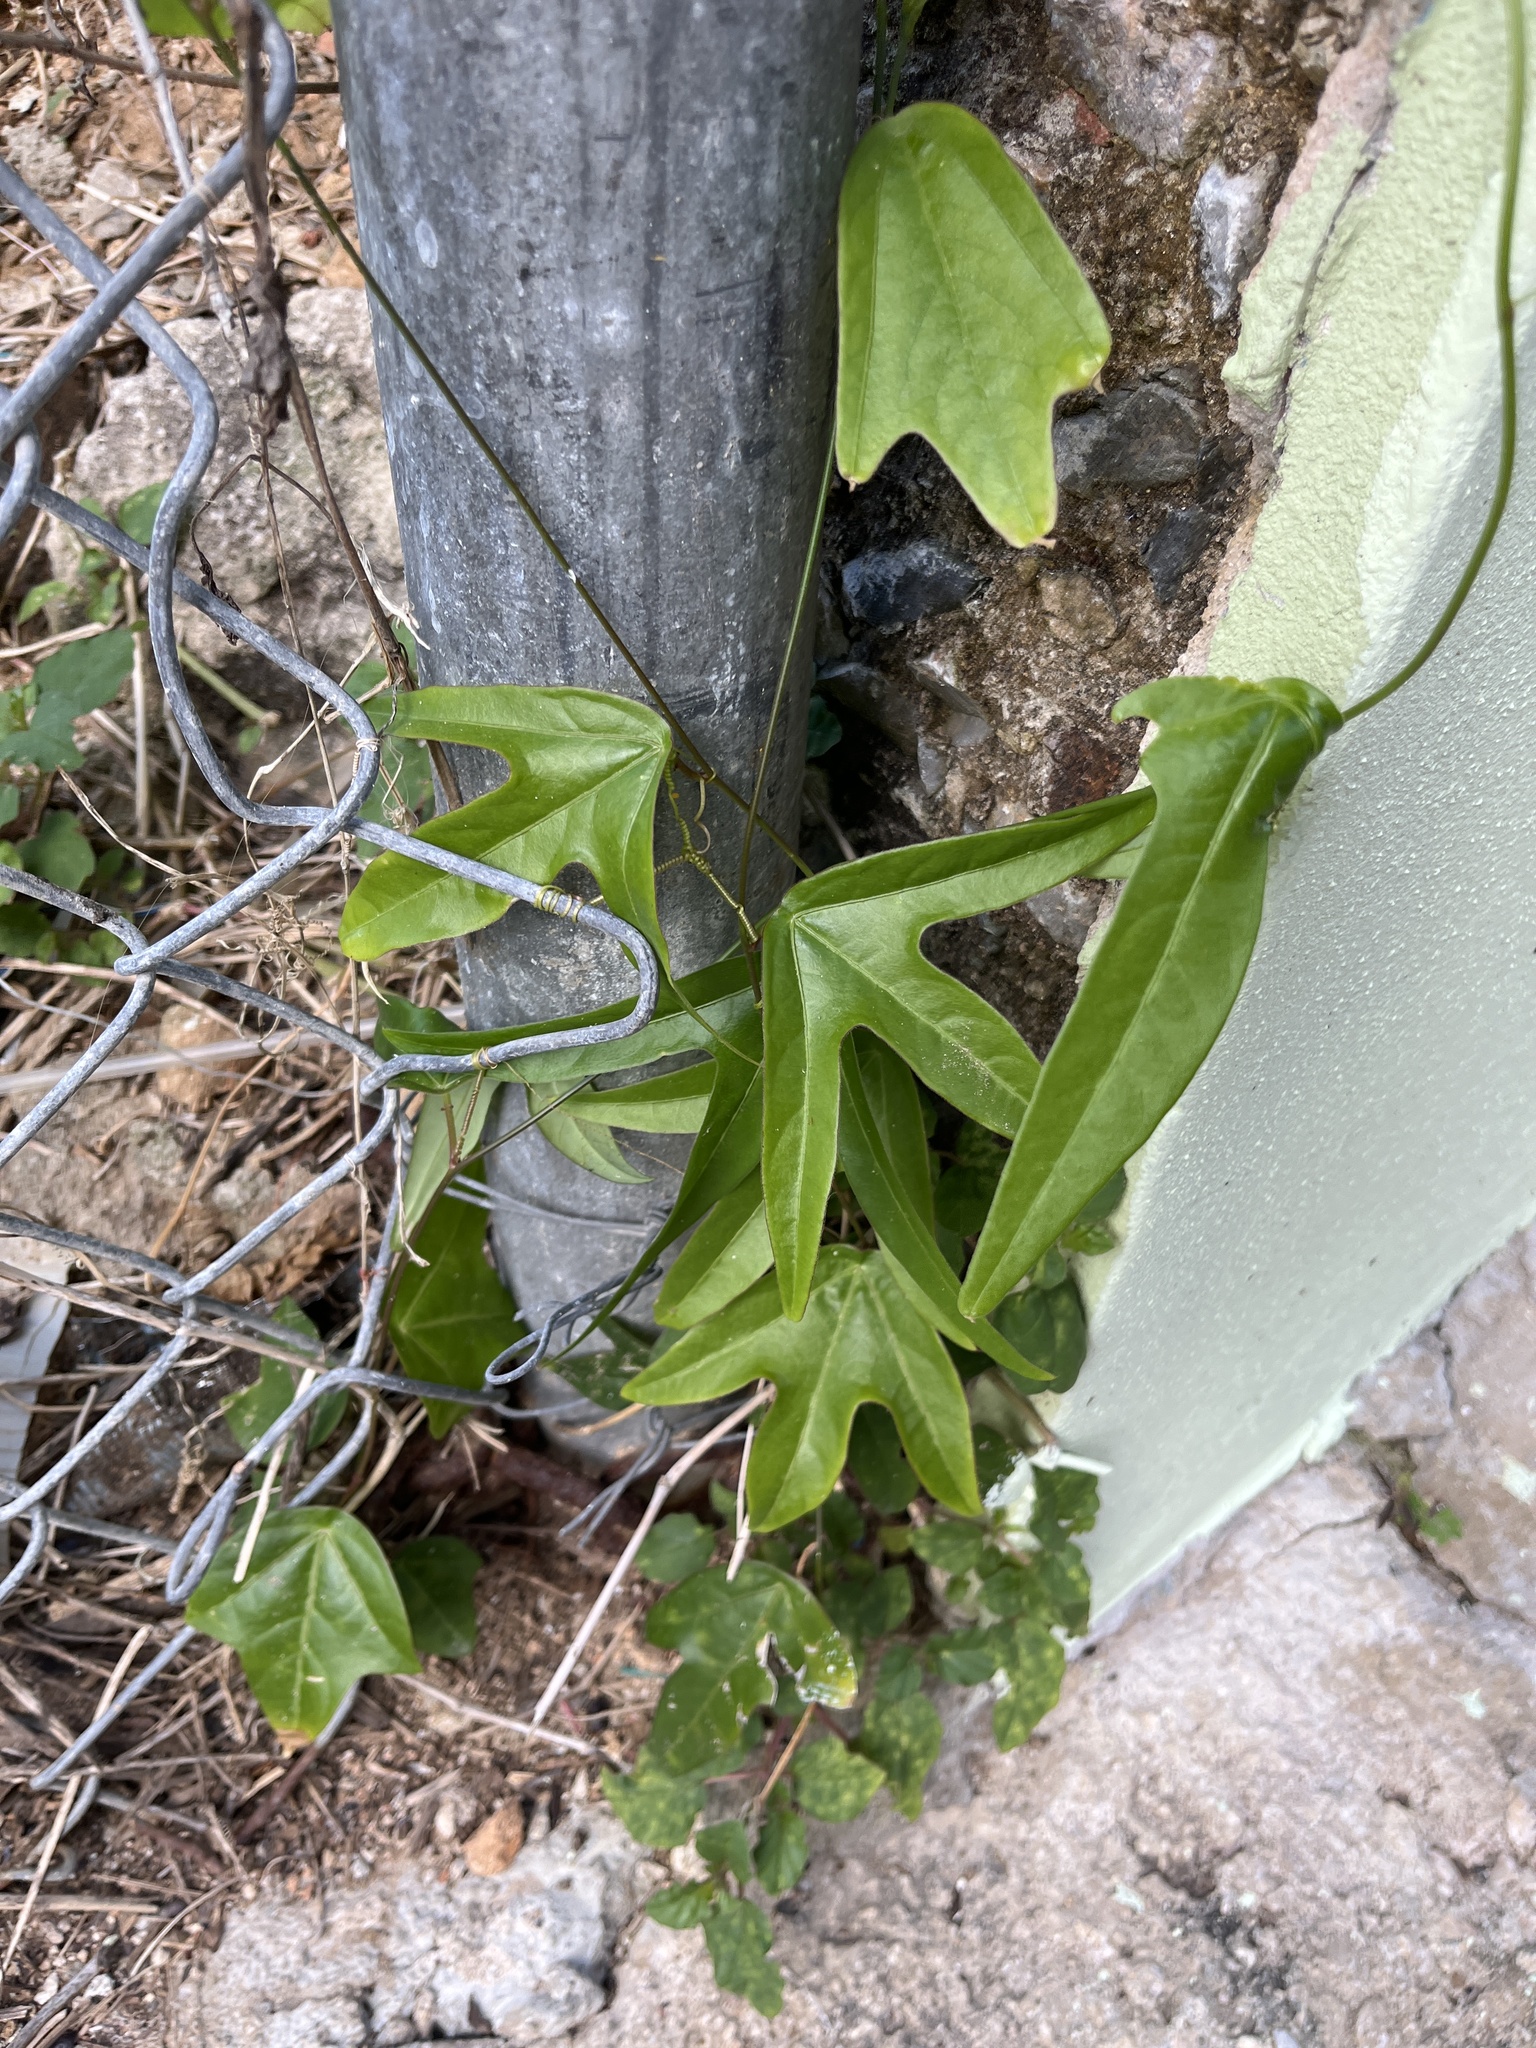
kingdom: Plantae
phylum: Tracheophyta
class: Magnoliopsida
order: Malpighiales
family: Passifloraceae
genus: Passiflora
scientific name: Passiflora suberosa
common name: Wild passionfruit
